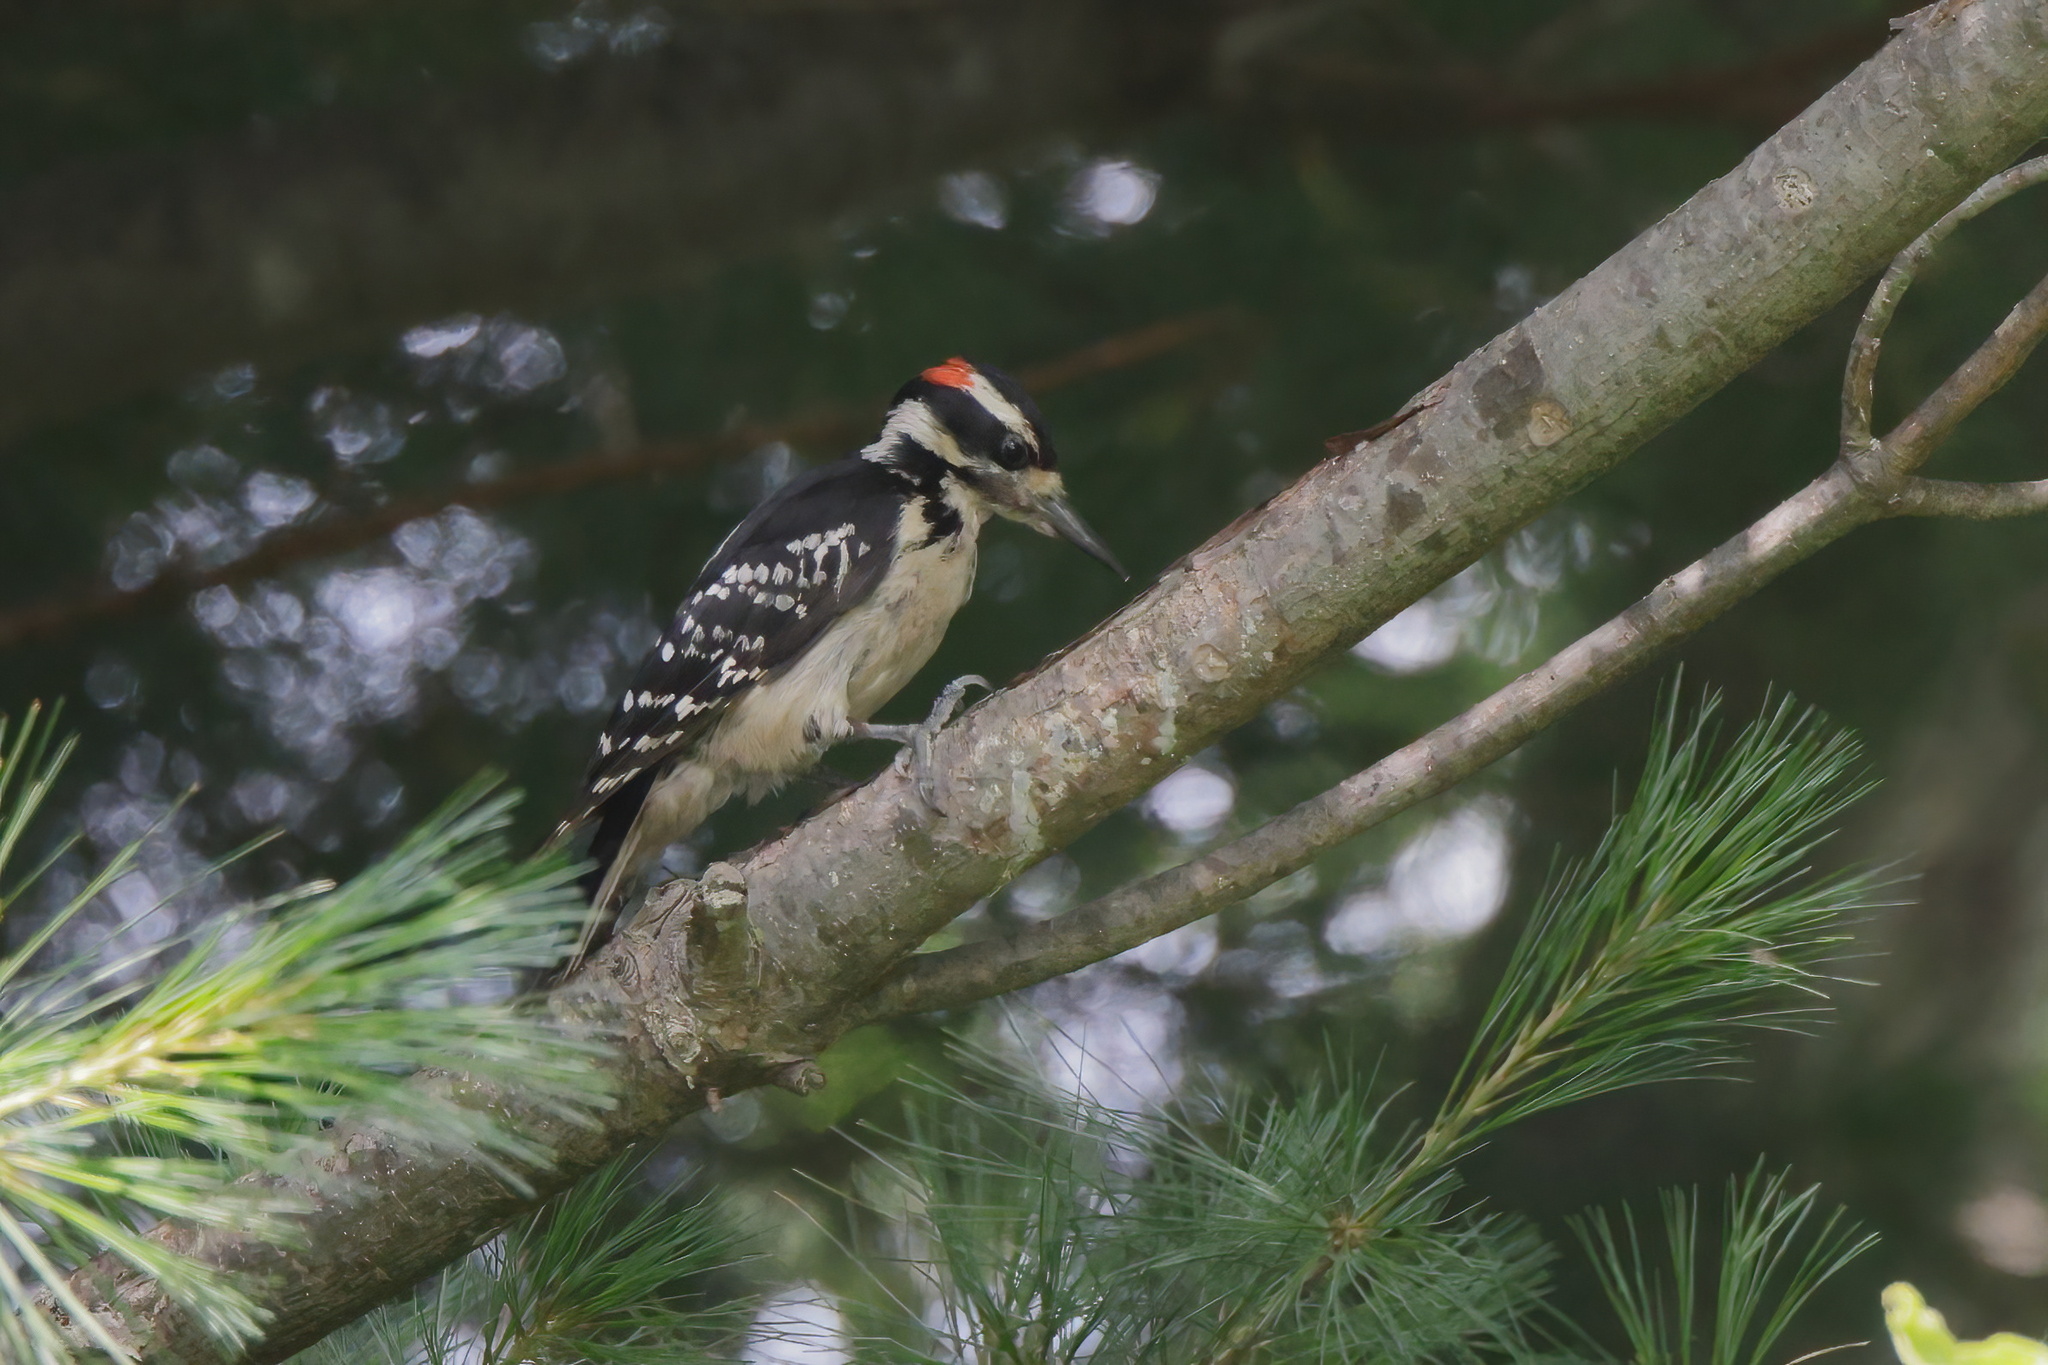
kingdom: Animalia
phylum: Chordata
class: Aves
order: Piciformes
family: Picidae
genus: Leuconotopicus
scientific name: Leuconotopicus villosus
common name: Hairy woodpecker
